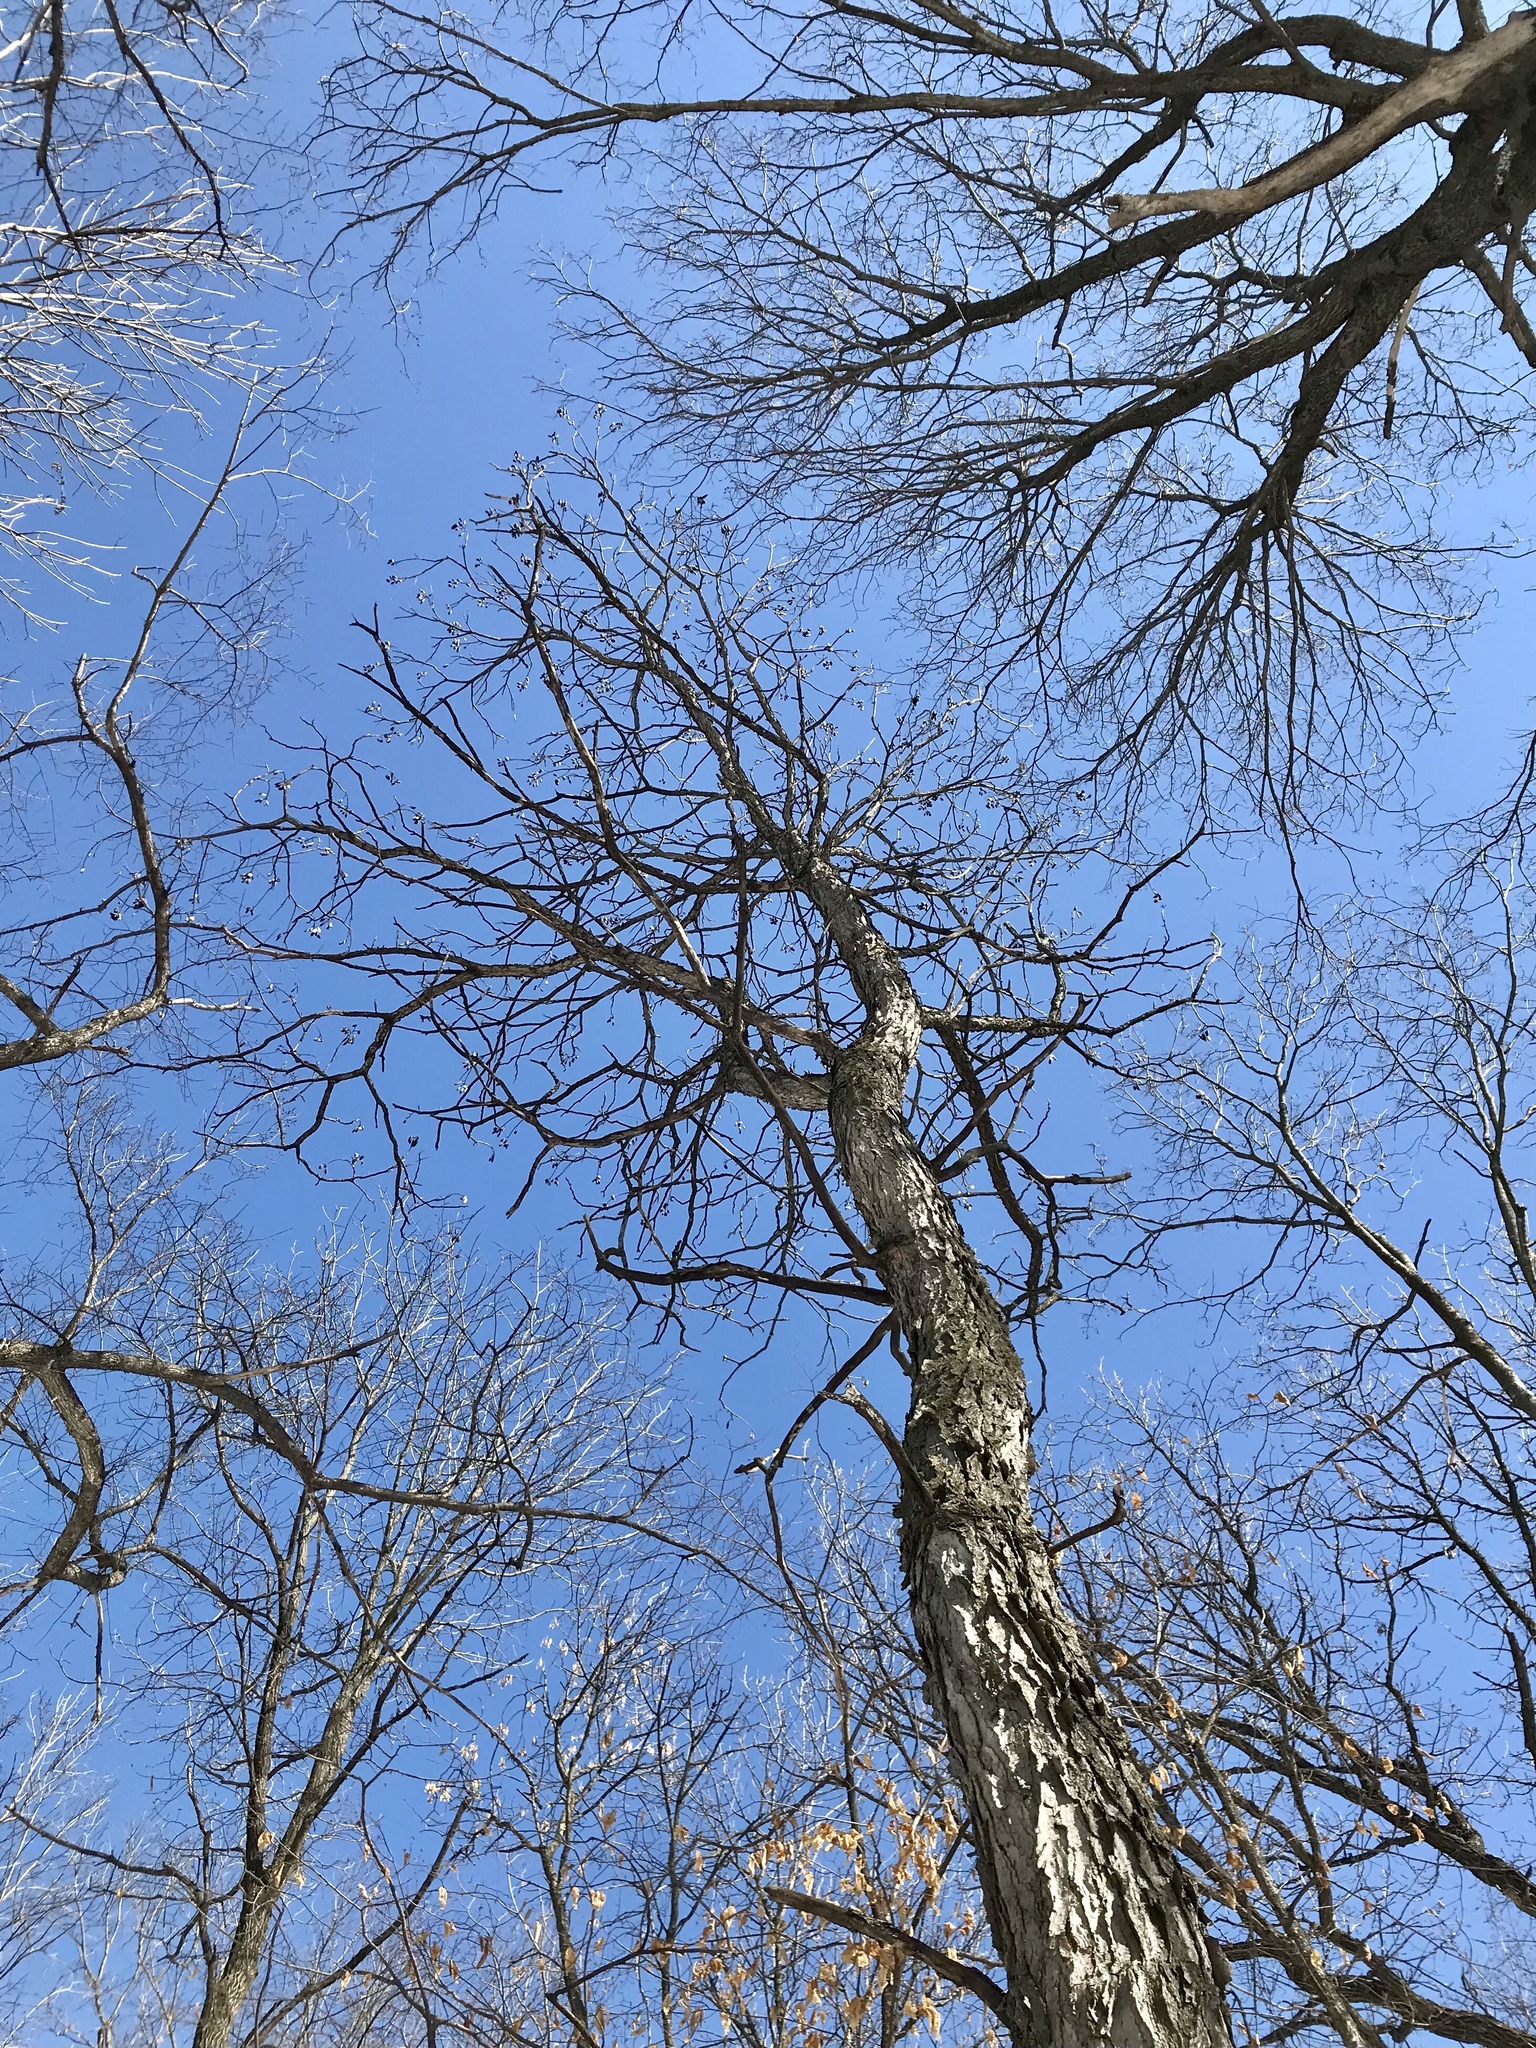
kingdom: Plantae
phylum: Tracheophyta
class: Magnoliopsida
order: Fabales
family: Fabaceae
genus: Gymnocladus
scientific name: Gymnocladus dioicus
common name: Kentucky coffee-tree
